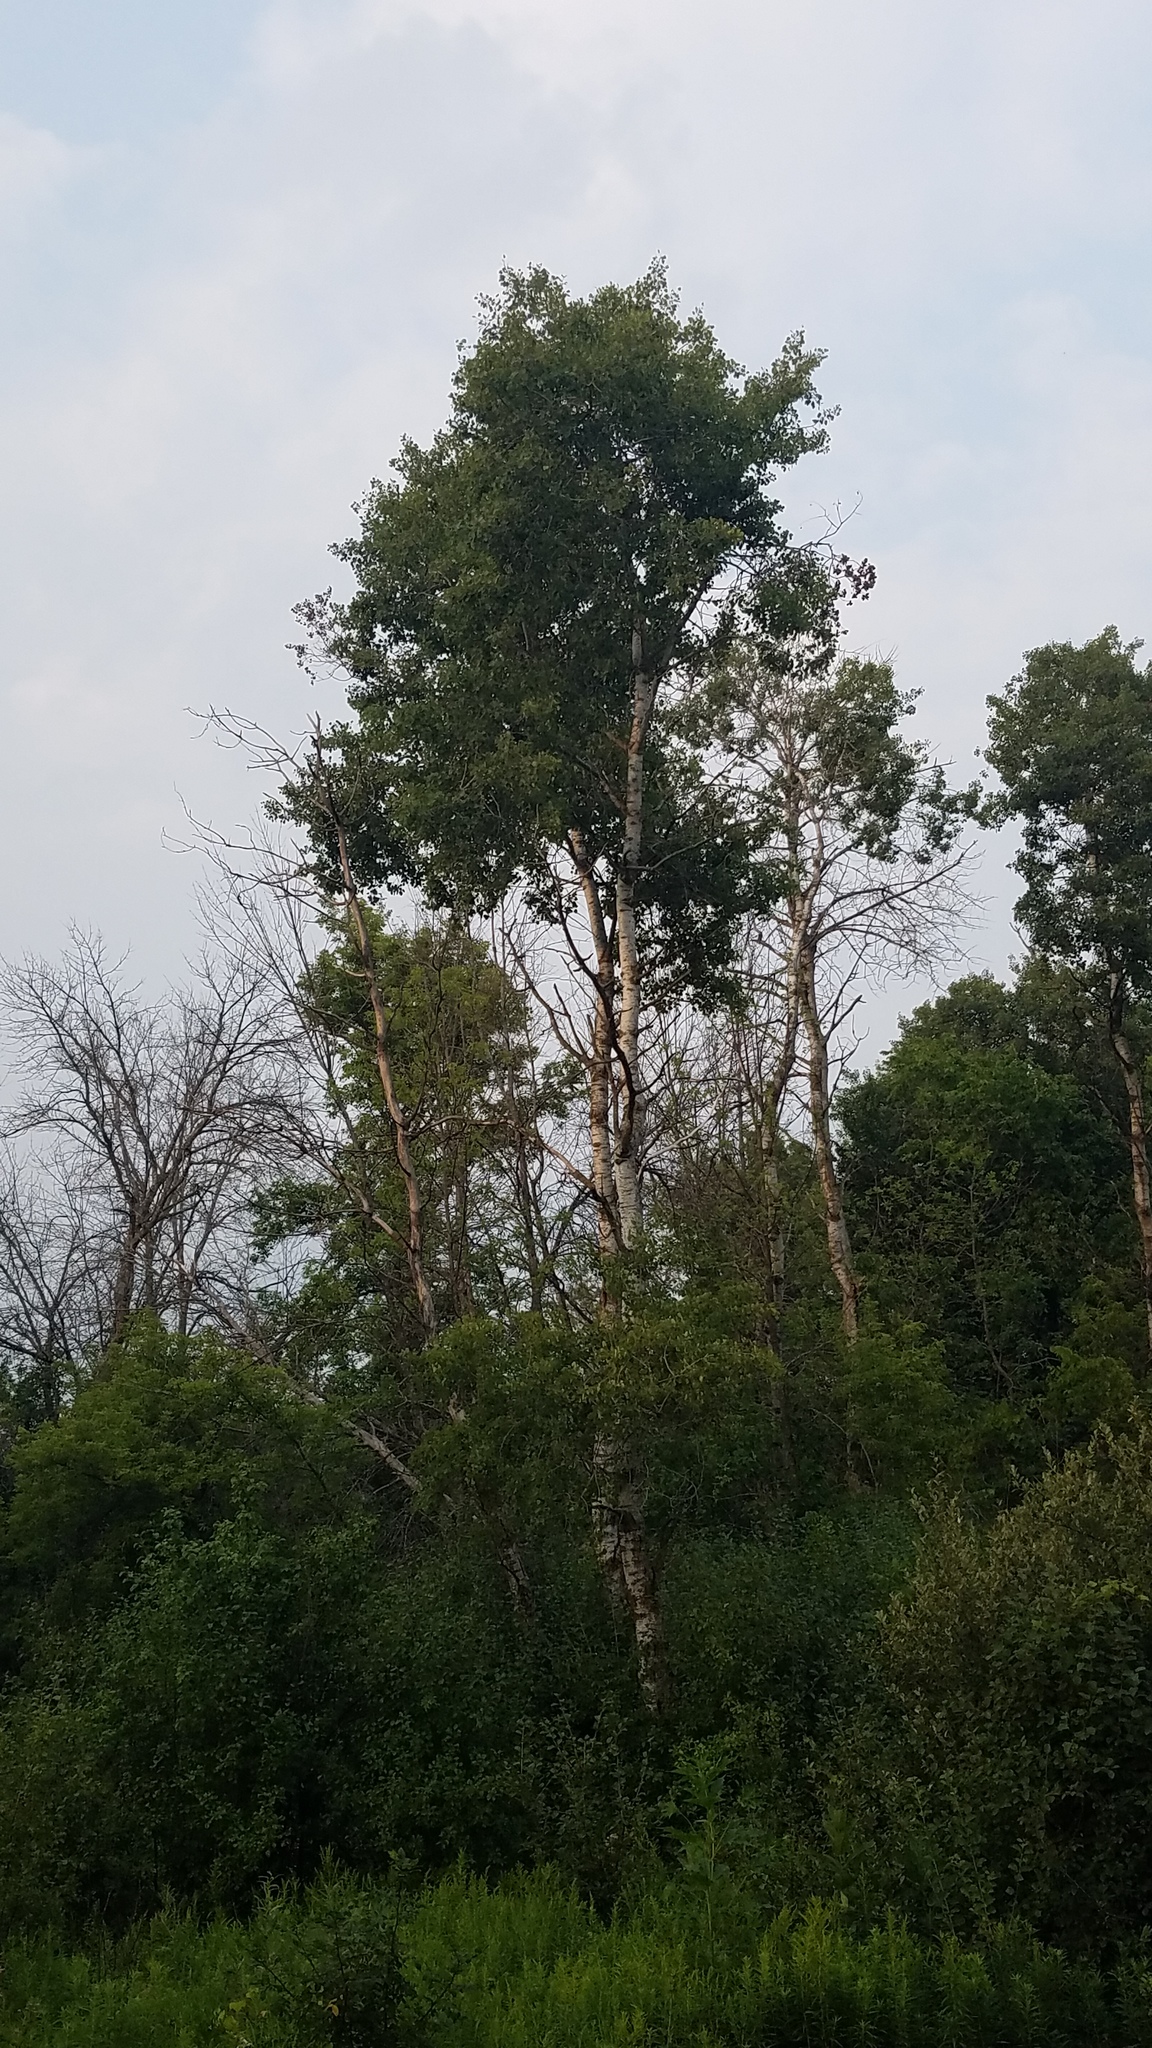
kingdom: Plantae
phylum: Tracheophyta
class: Magnoliopsida
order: Malpighiales
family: Salicaceae
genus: Populus
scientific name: Populus tremuloides
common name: Quaking aspen
